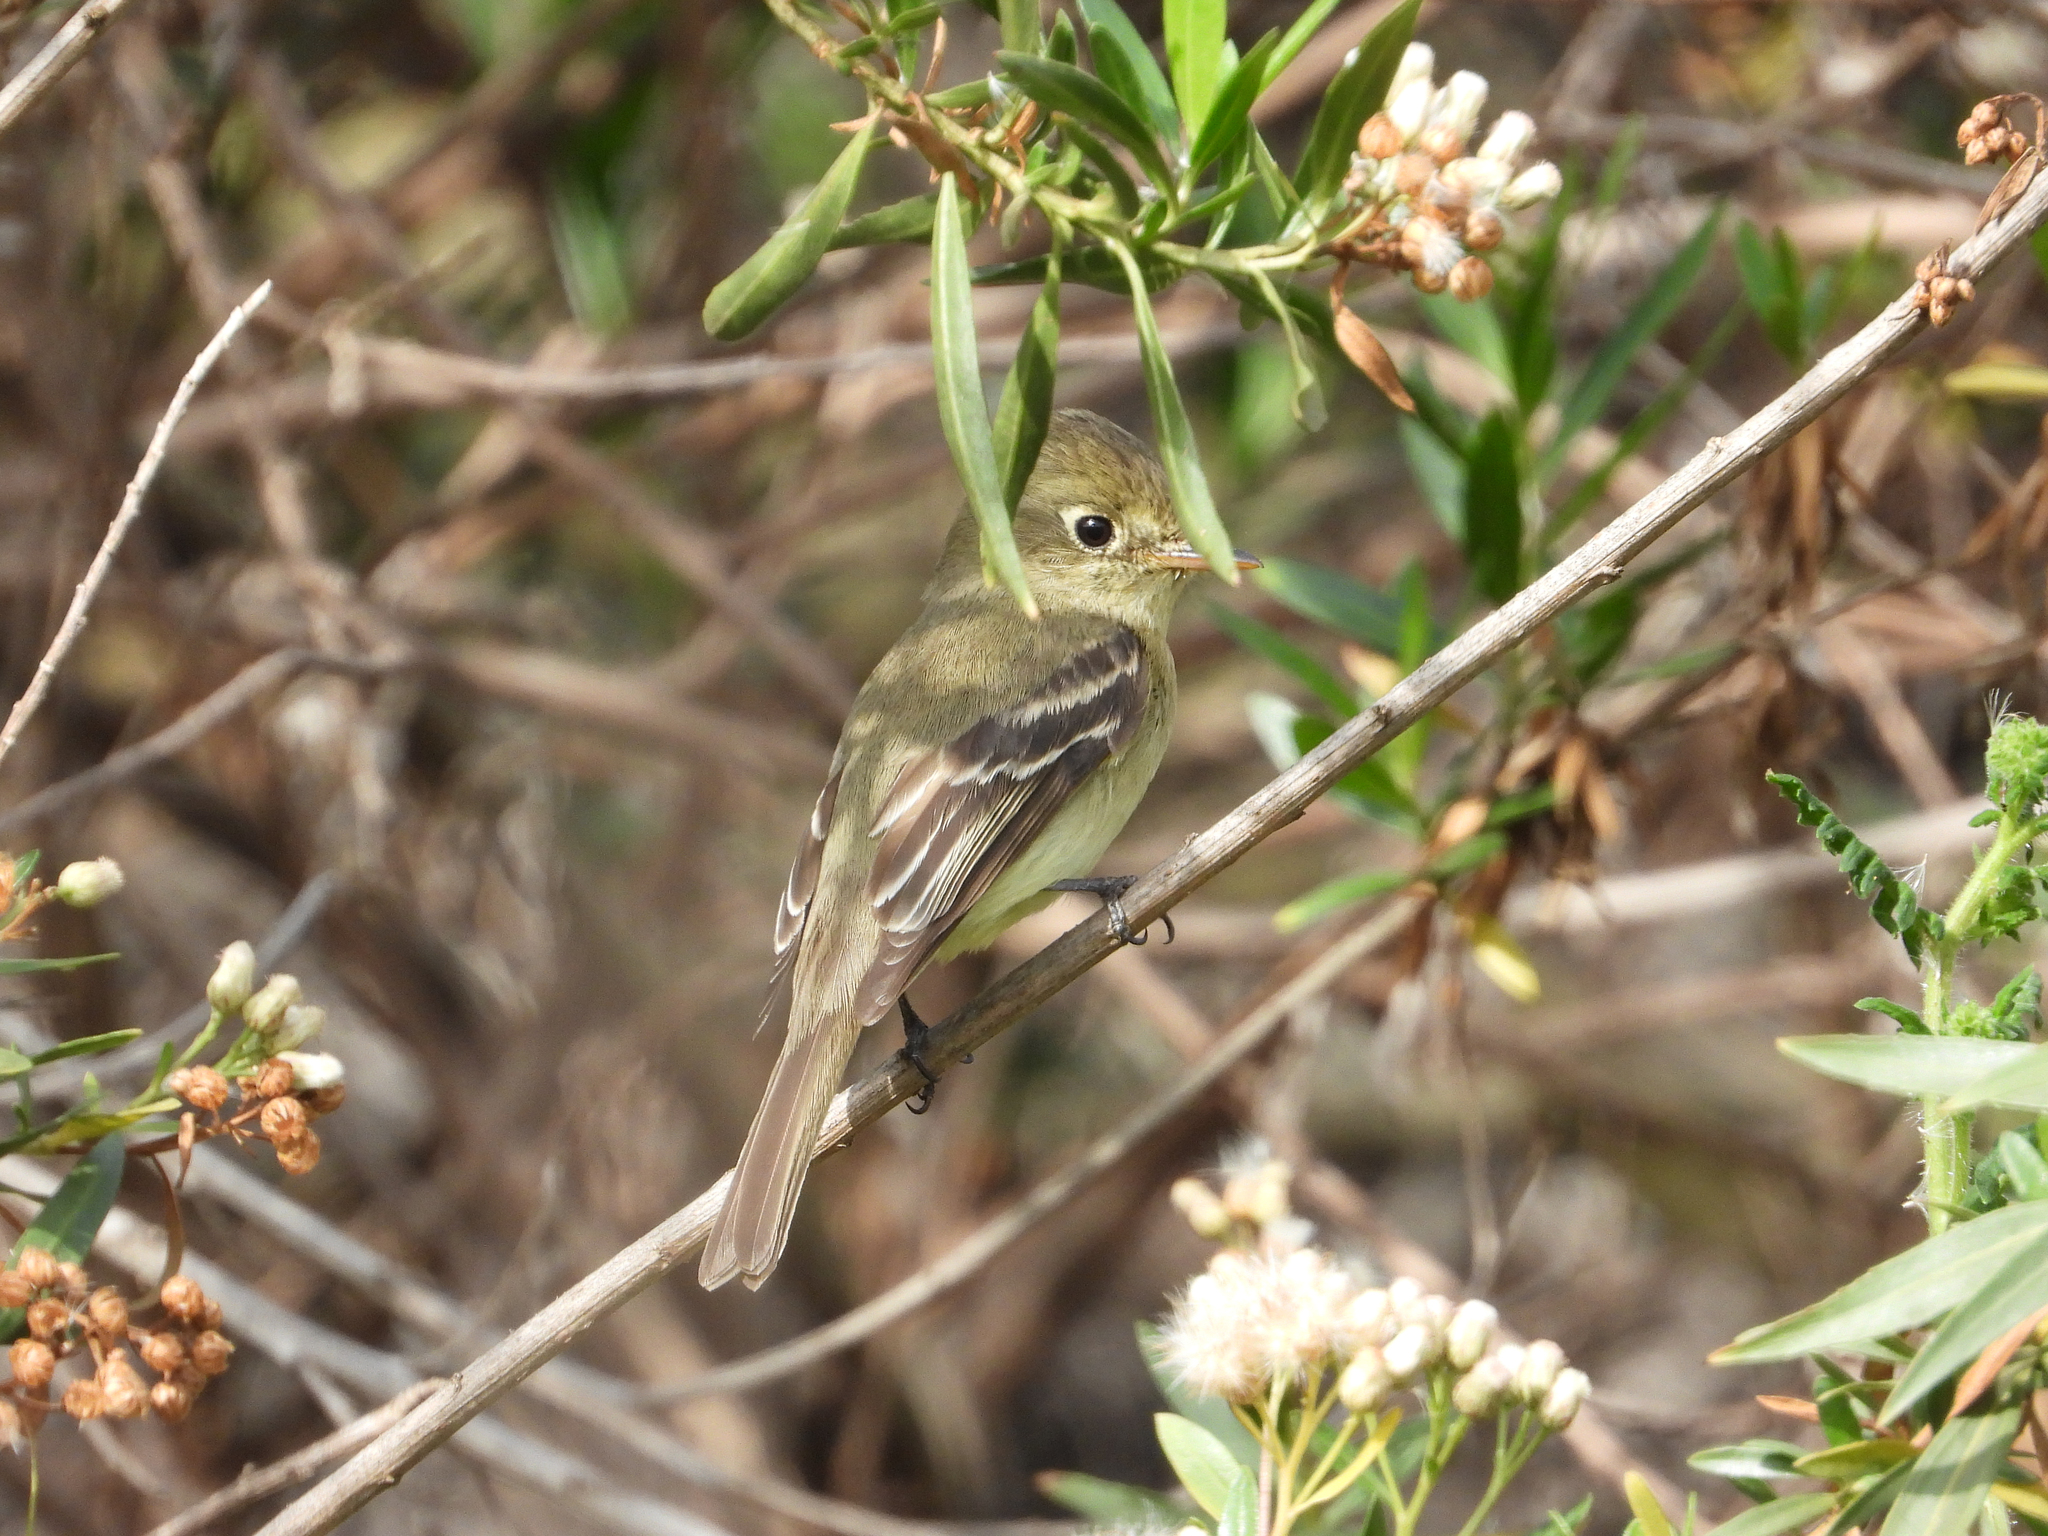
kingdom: Animalia
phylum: Chordata
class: Aves
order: Passeriformes
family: Tyrannidae
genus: Empidonax
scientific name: Empidonax difficilis
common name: Pacific-slope flycatcher
